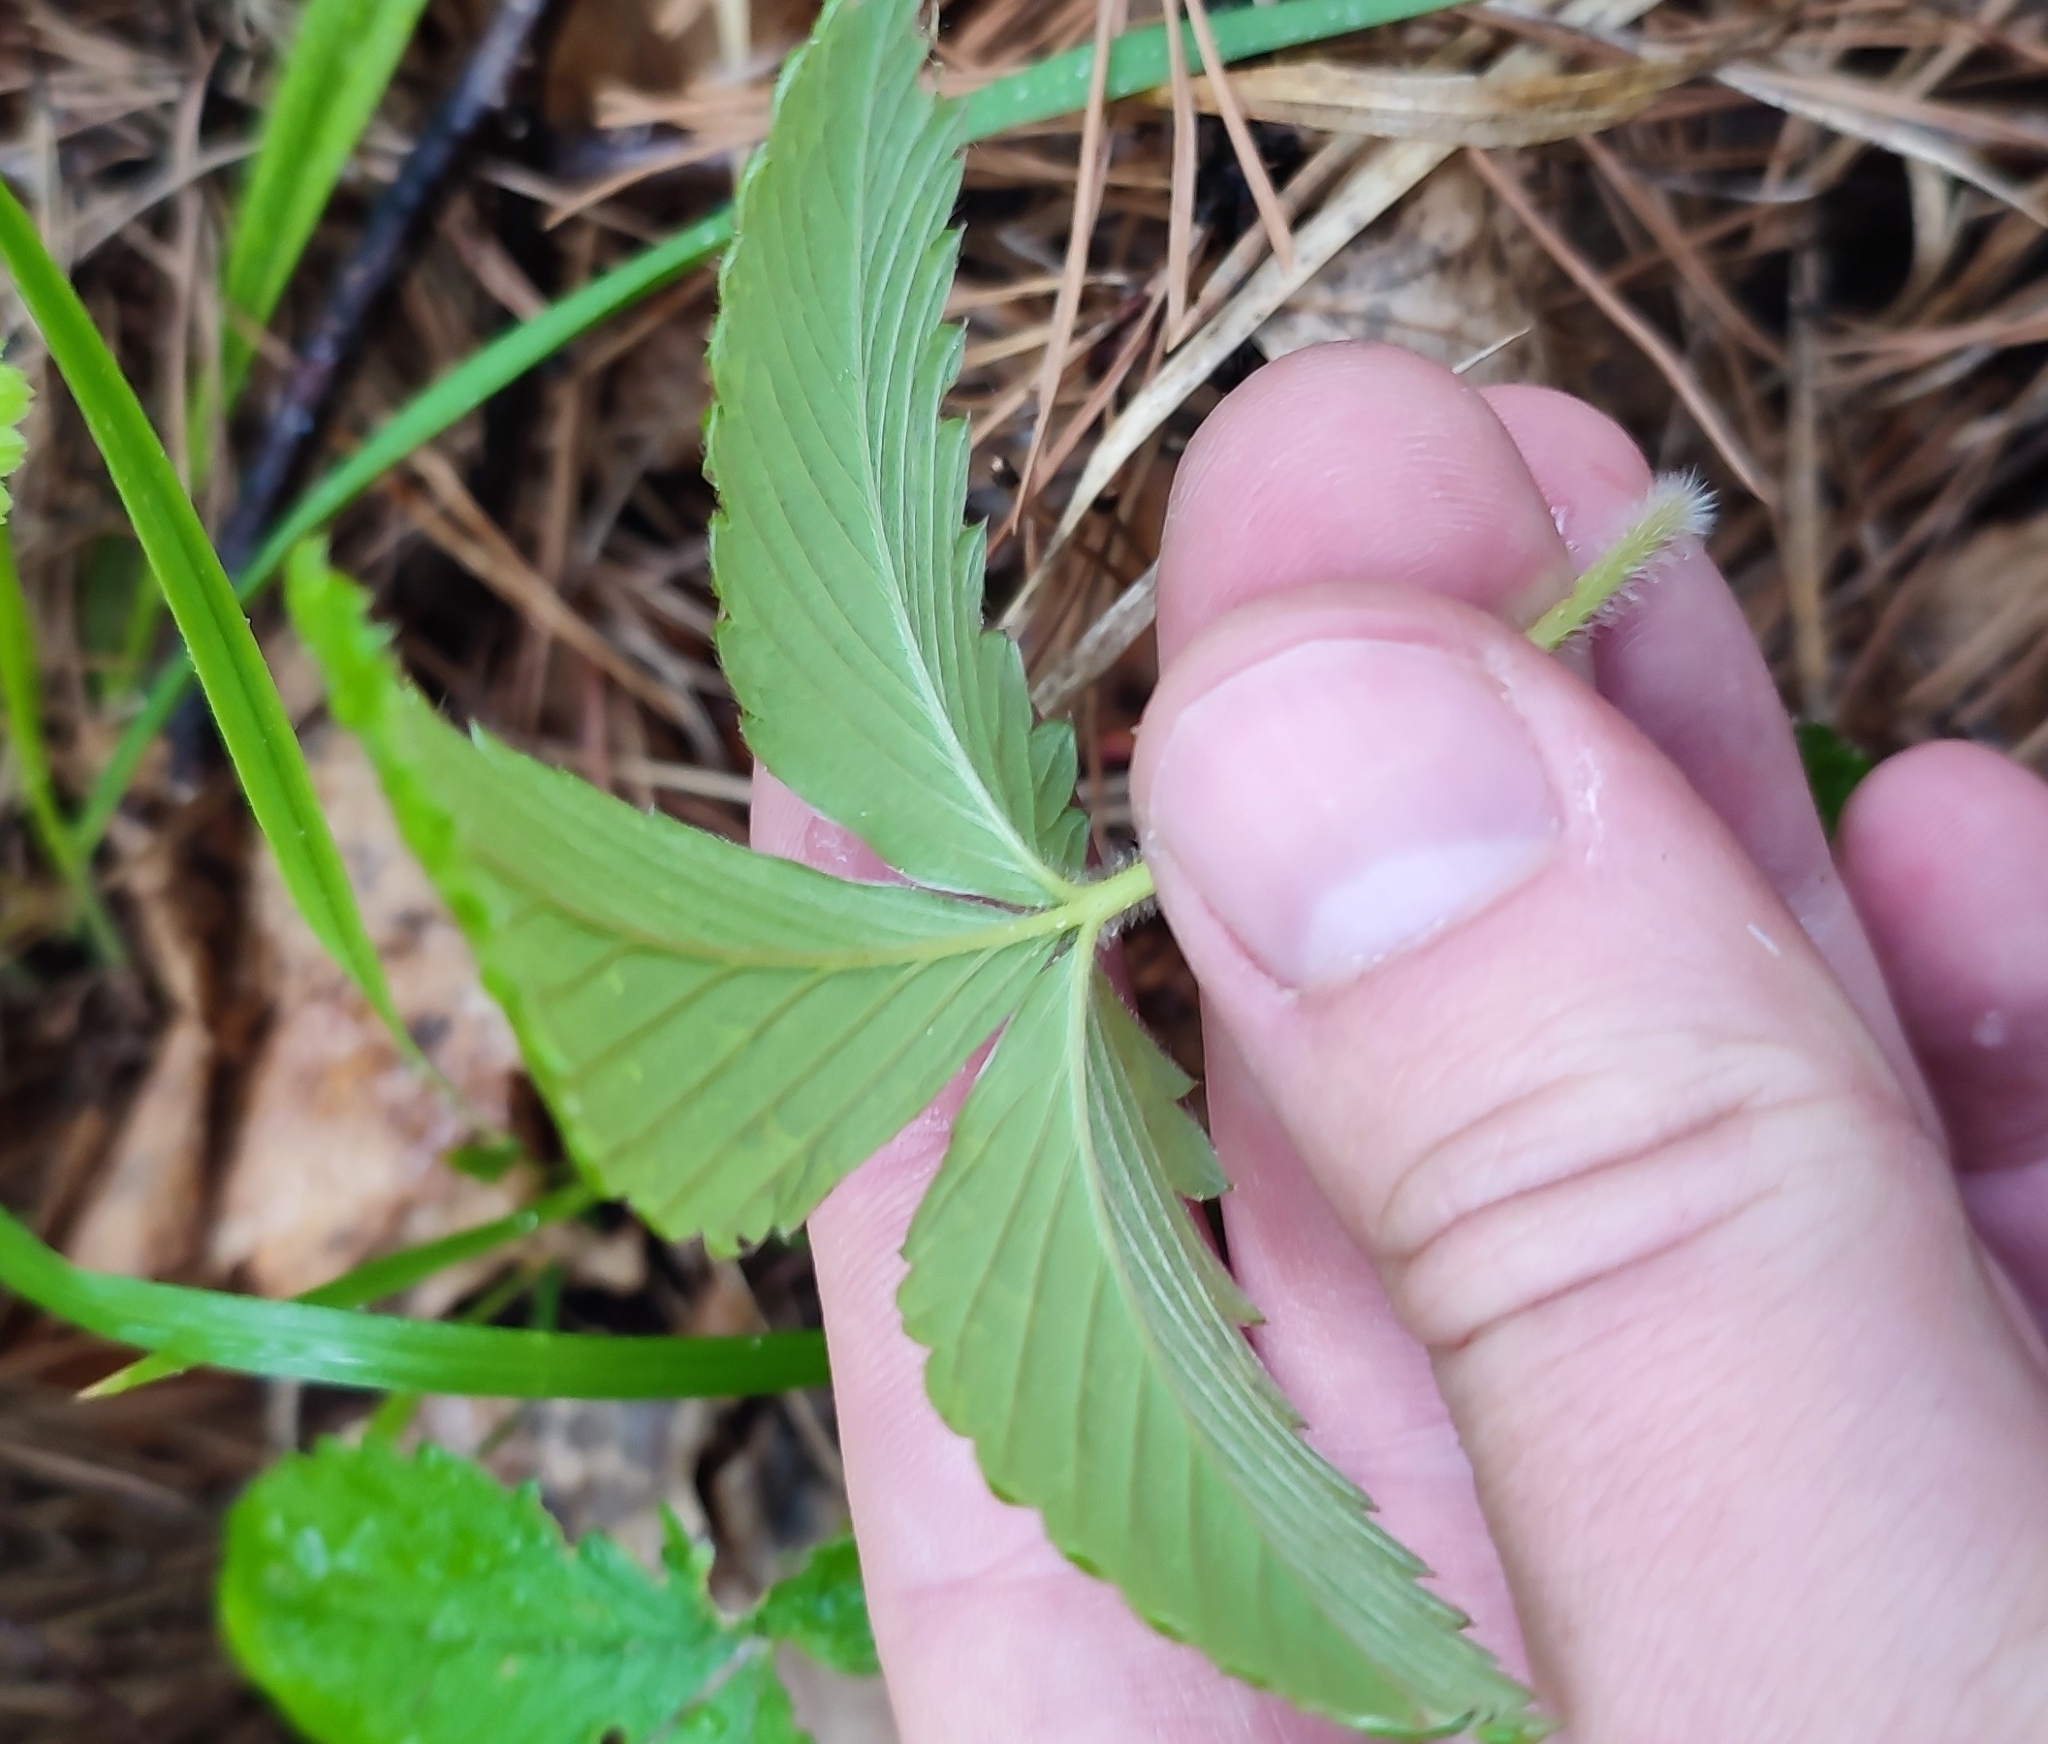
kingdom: Plantae
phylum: Tracheophyta
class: Magnoliopsida
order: Rosales
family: Rosaceae
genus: Fragaria
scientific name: Fragaria vesca
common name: Wild strawberry
